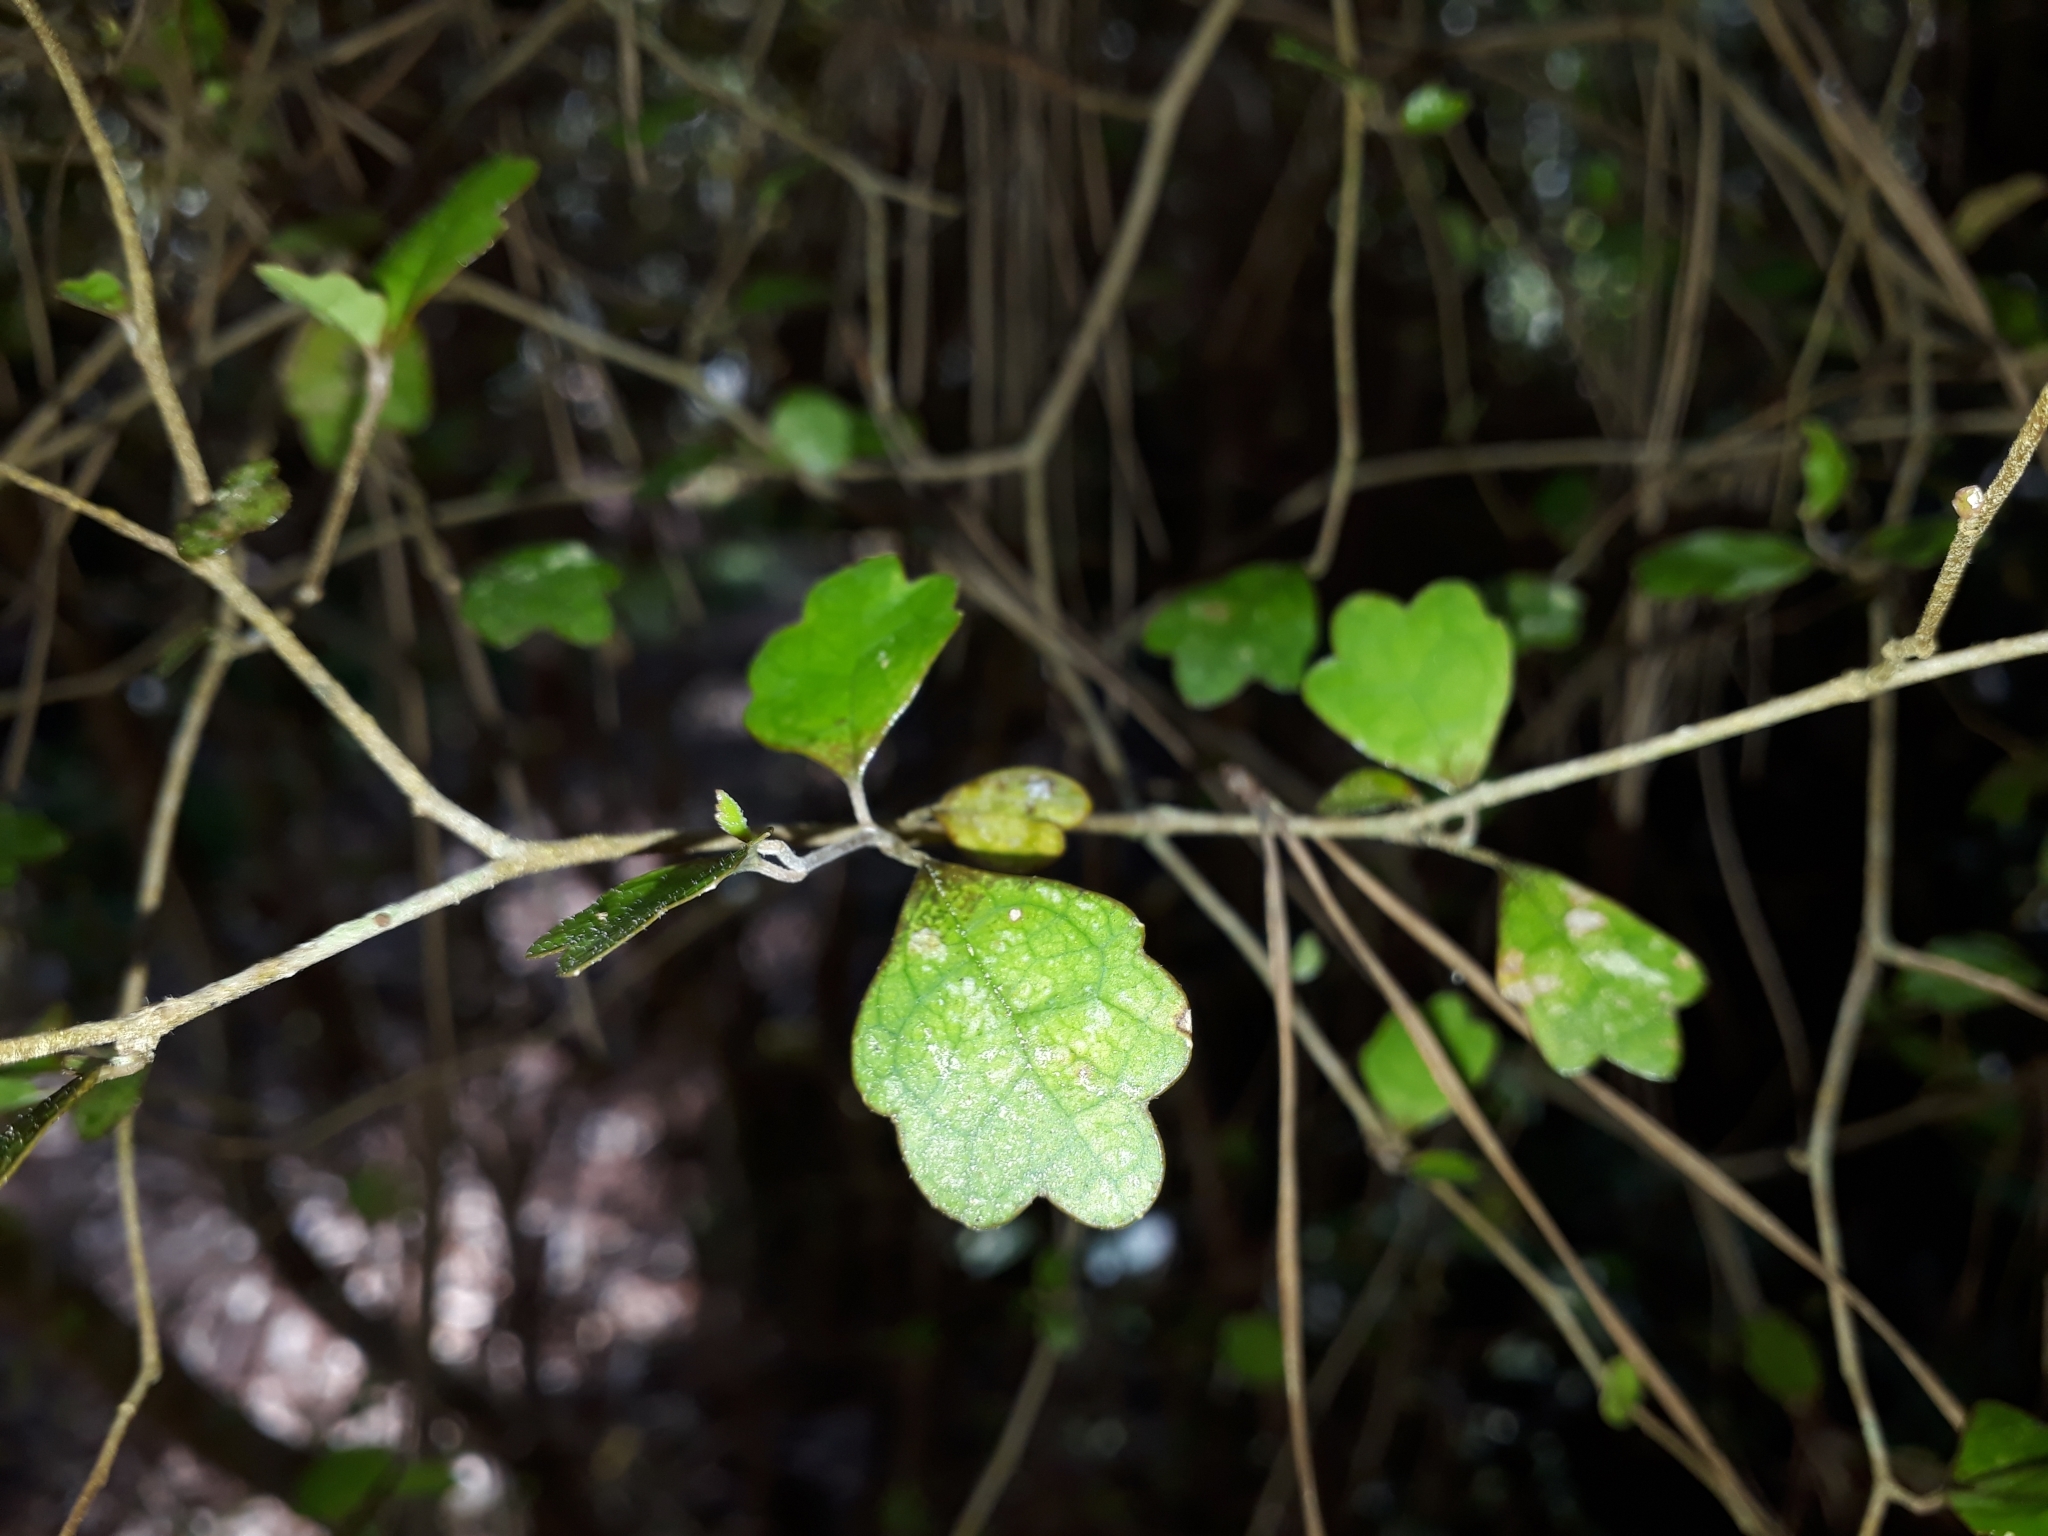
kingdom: Plantae
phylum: Tracheophyta
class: Magnoliopsida
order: Apiales
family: Pennantiaceae
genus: Pennantia
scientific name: Pennantia corymbosa
